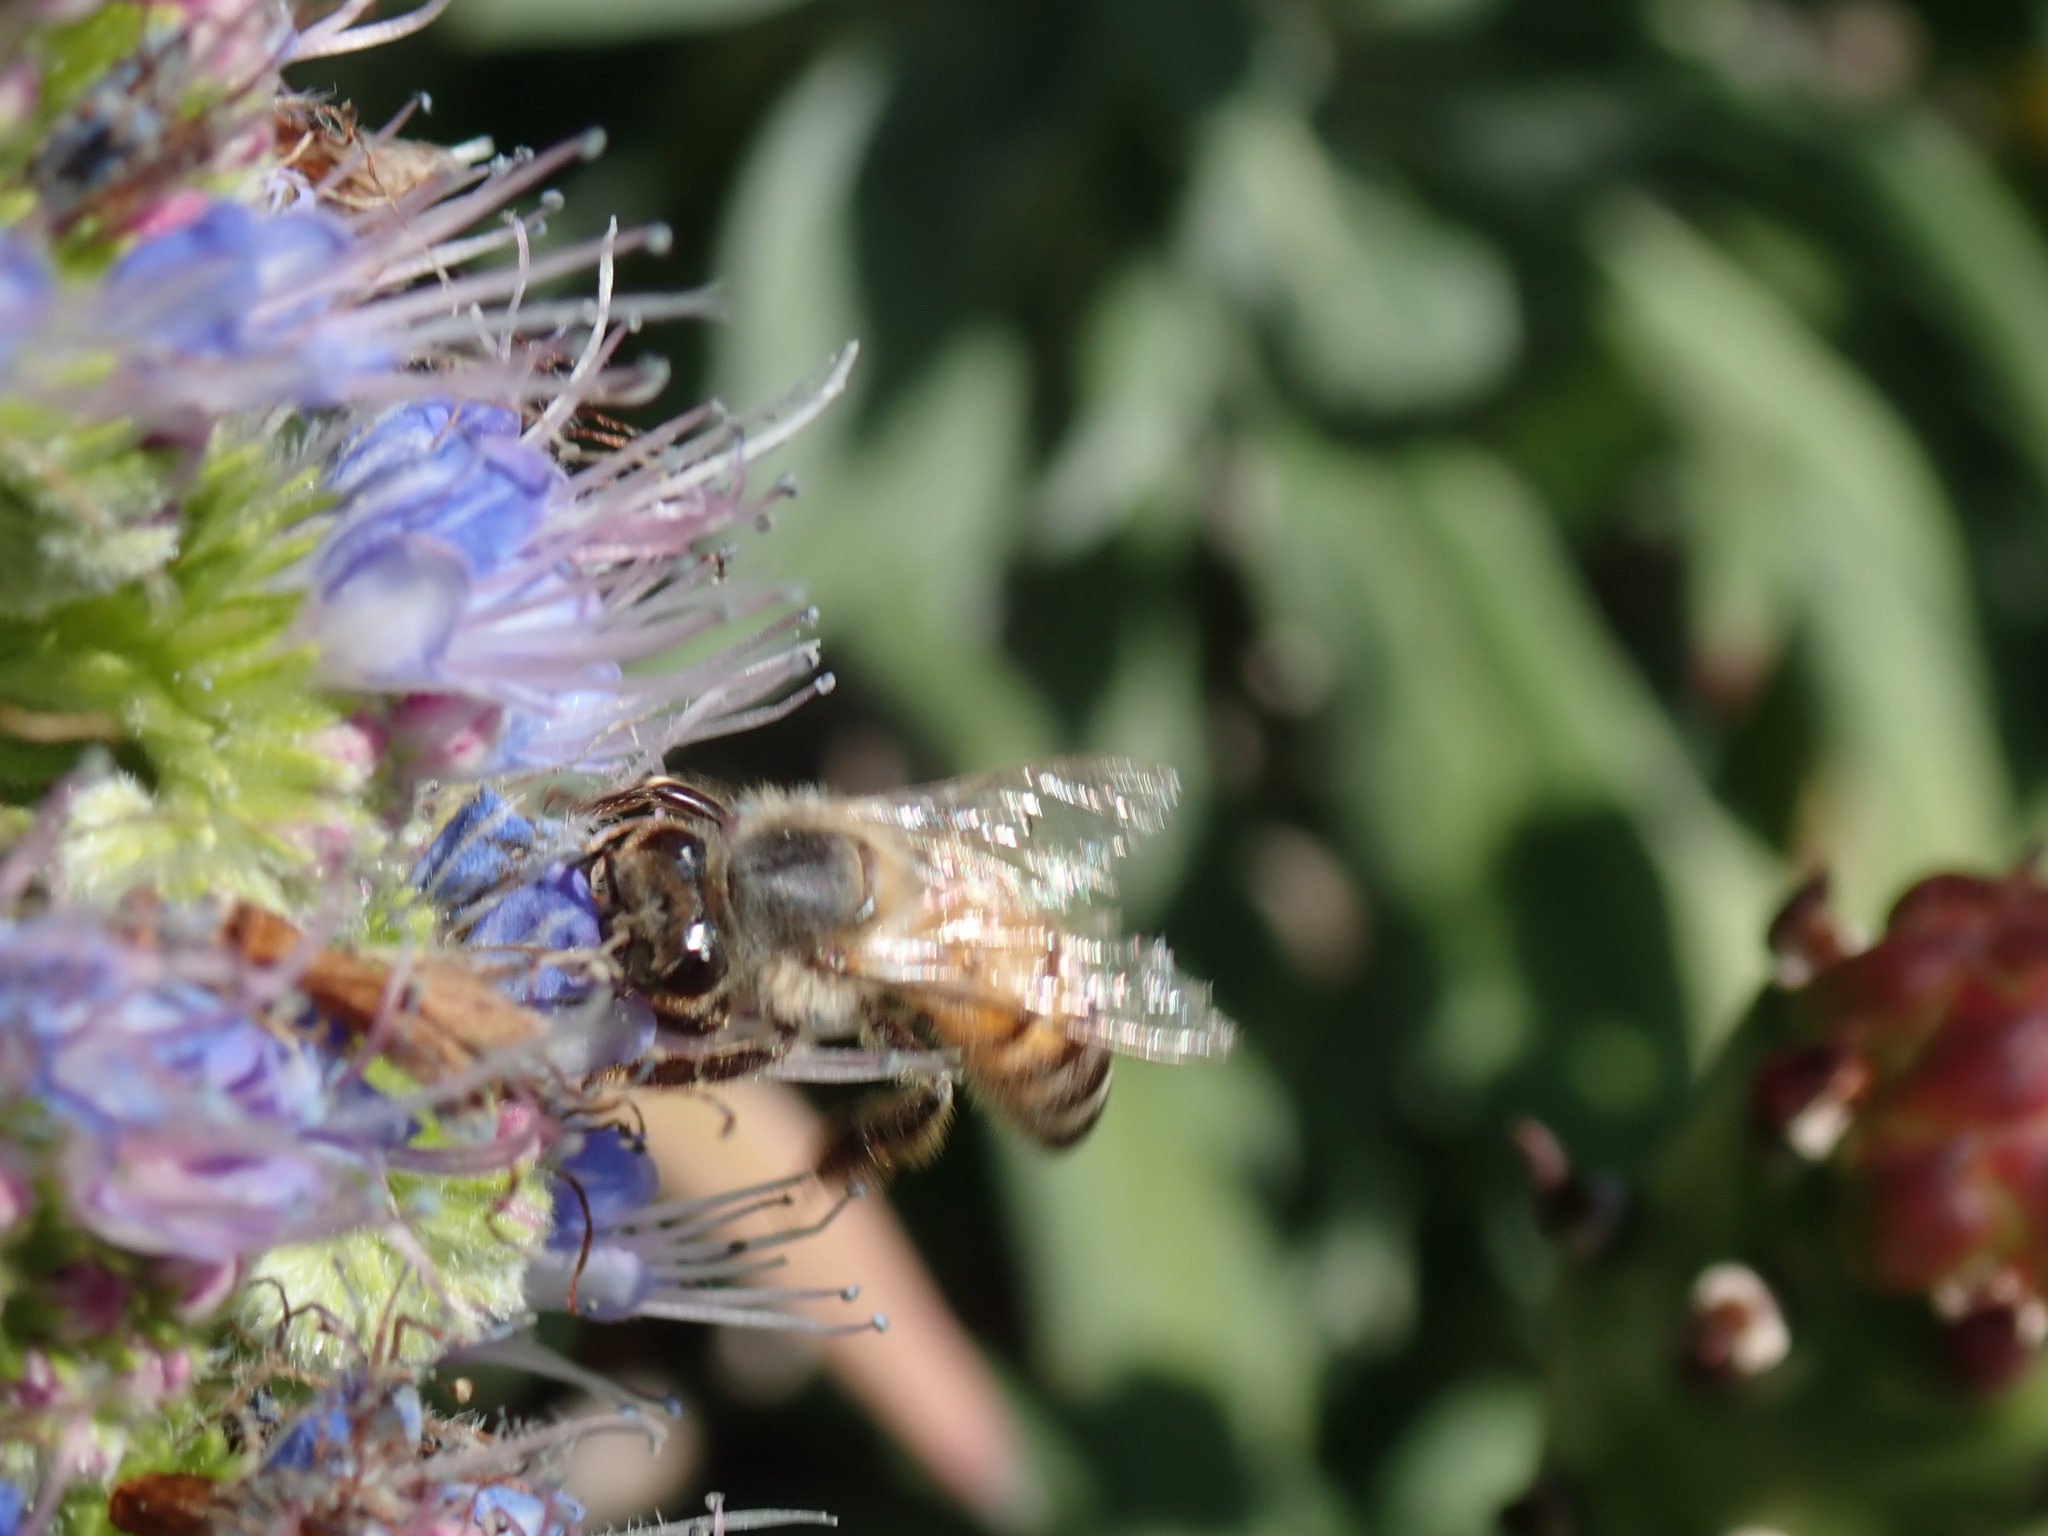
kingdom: Animalia
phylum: Arthropoda
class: Insecta
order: Hymenoptera
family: Apidae
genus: Apis
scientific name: Apis mellifera
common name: Honey bee
